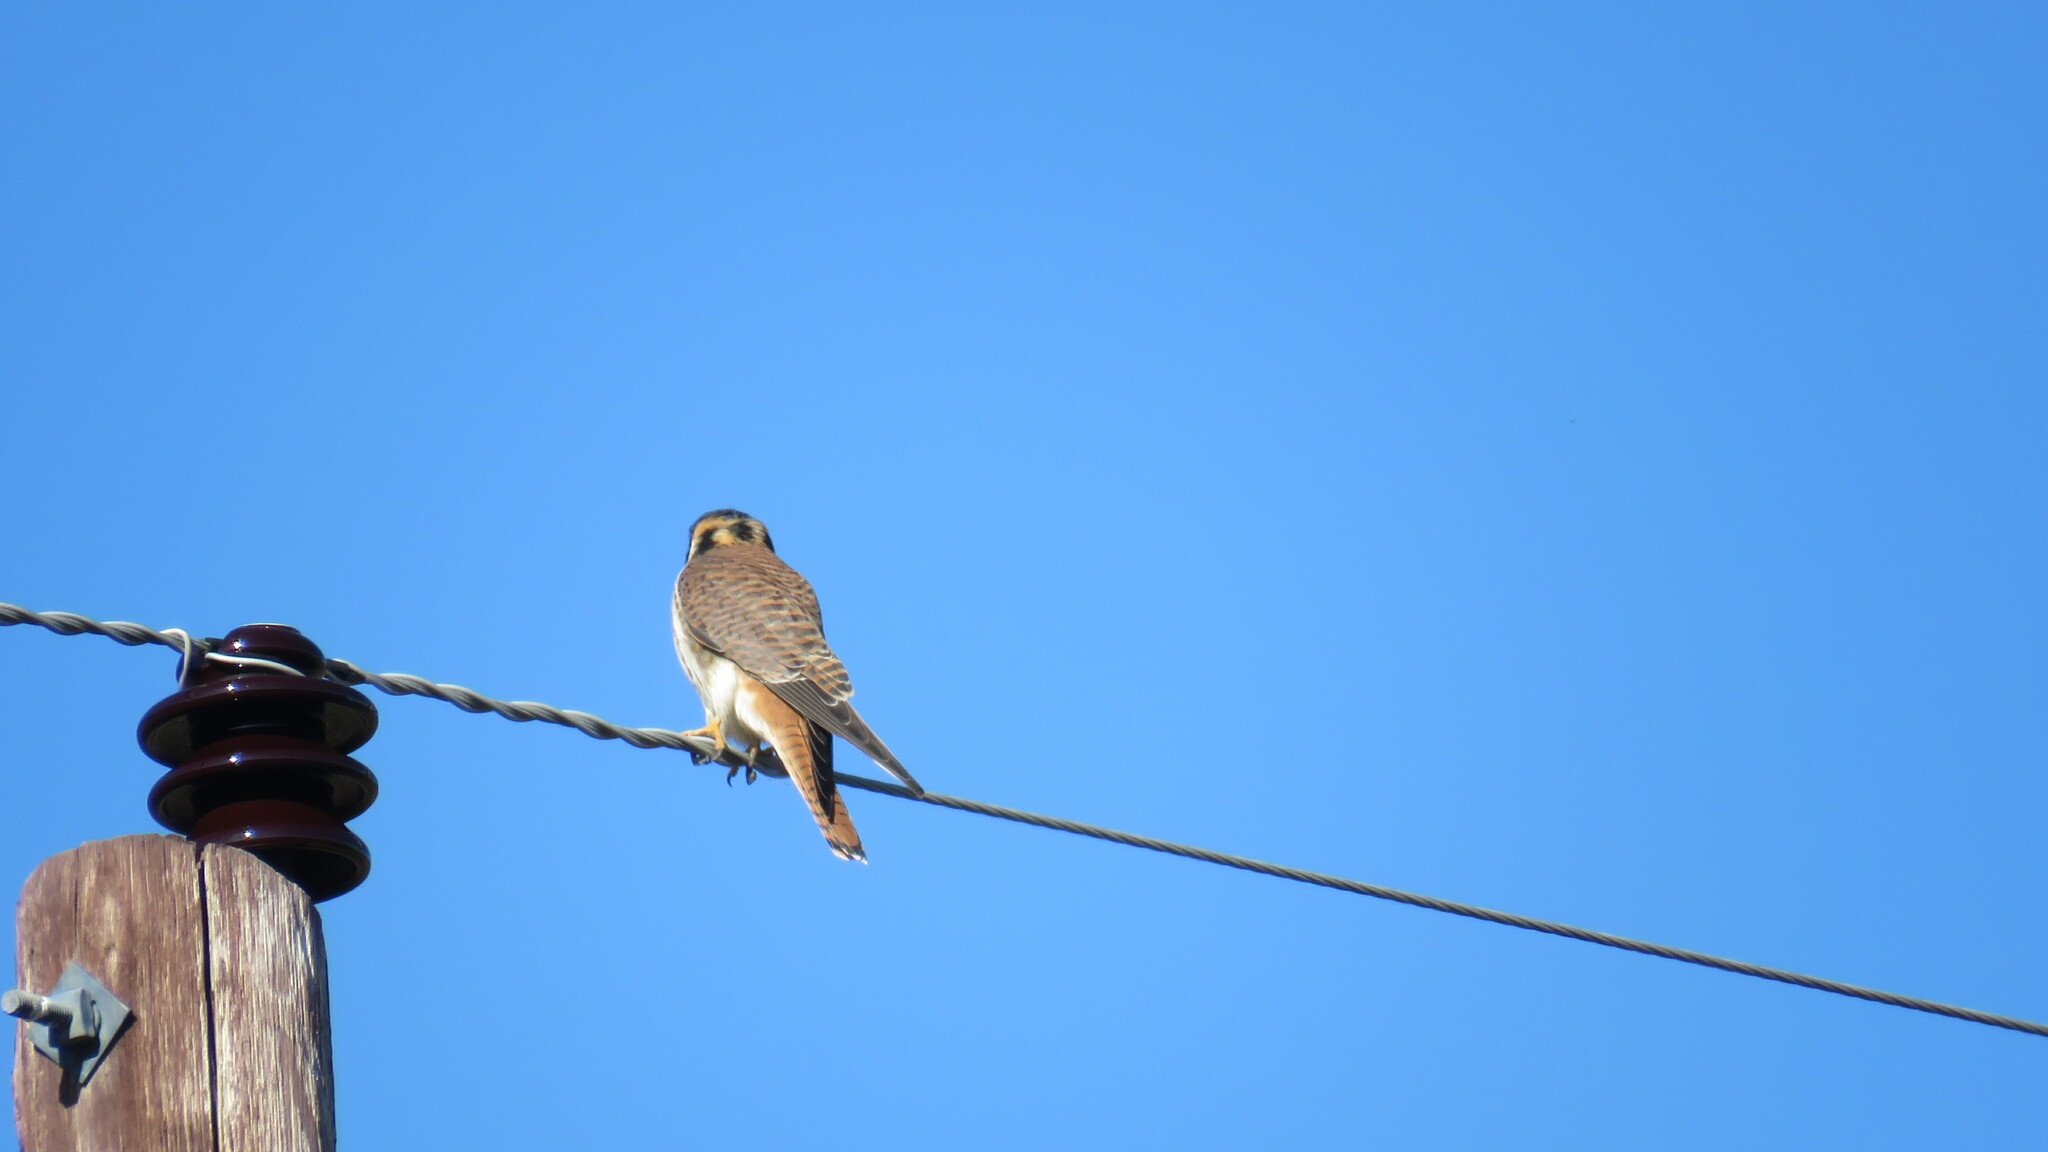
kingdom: Animalia
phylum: Chordata
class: Aves
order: Falconiformes
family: Falconidae
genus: Falco
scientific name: Falco sparverius
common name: American kestrel
